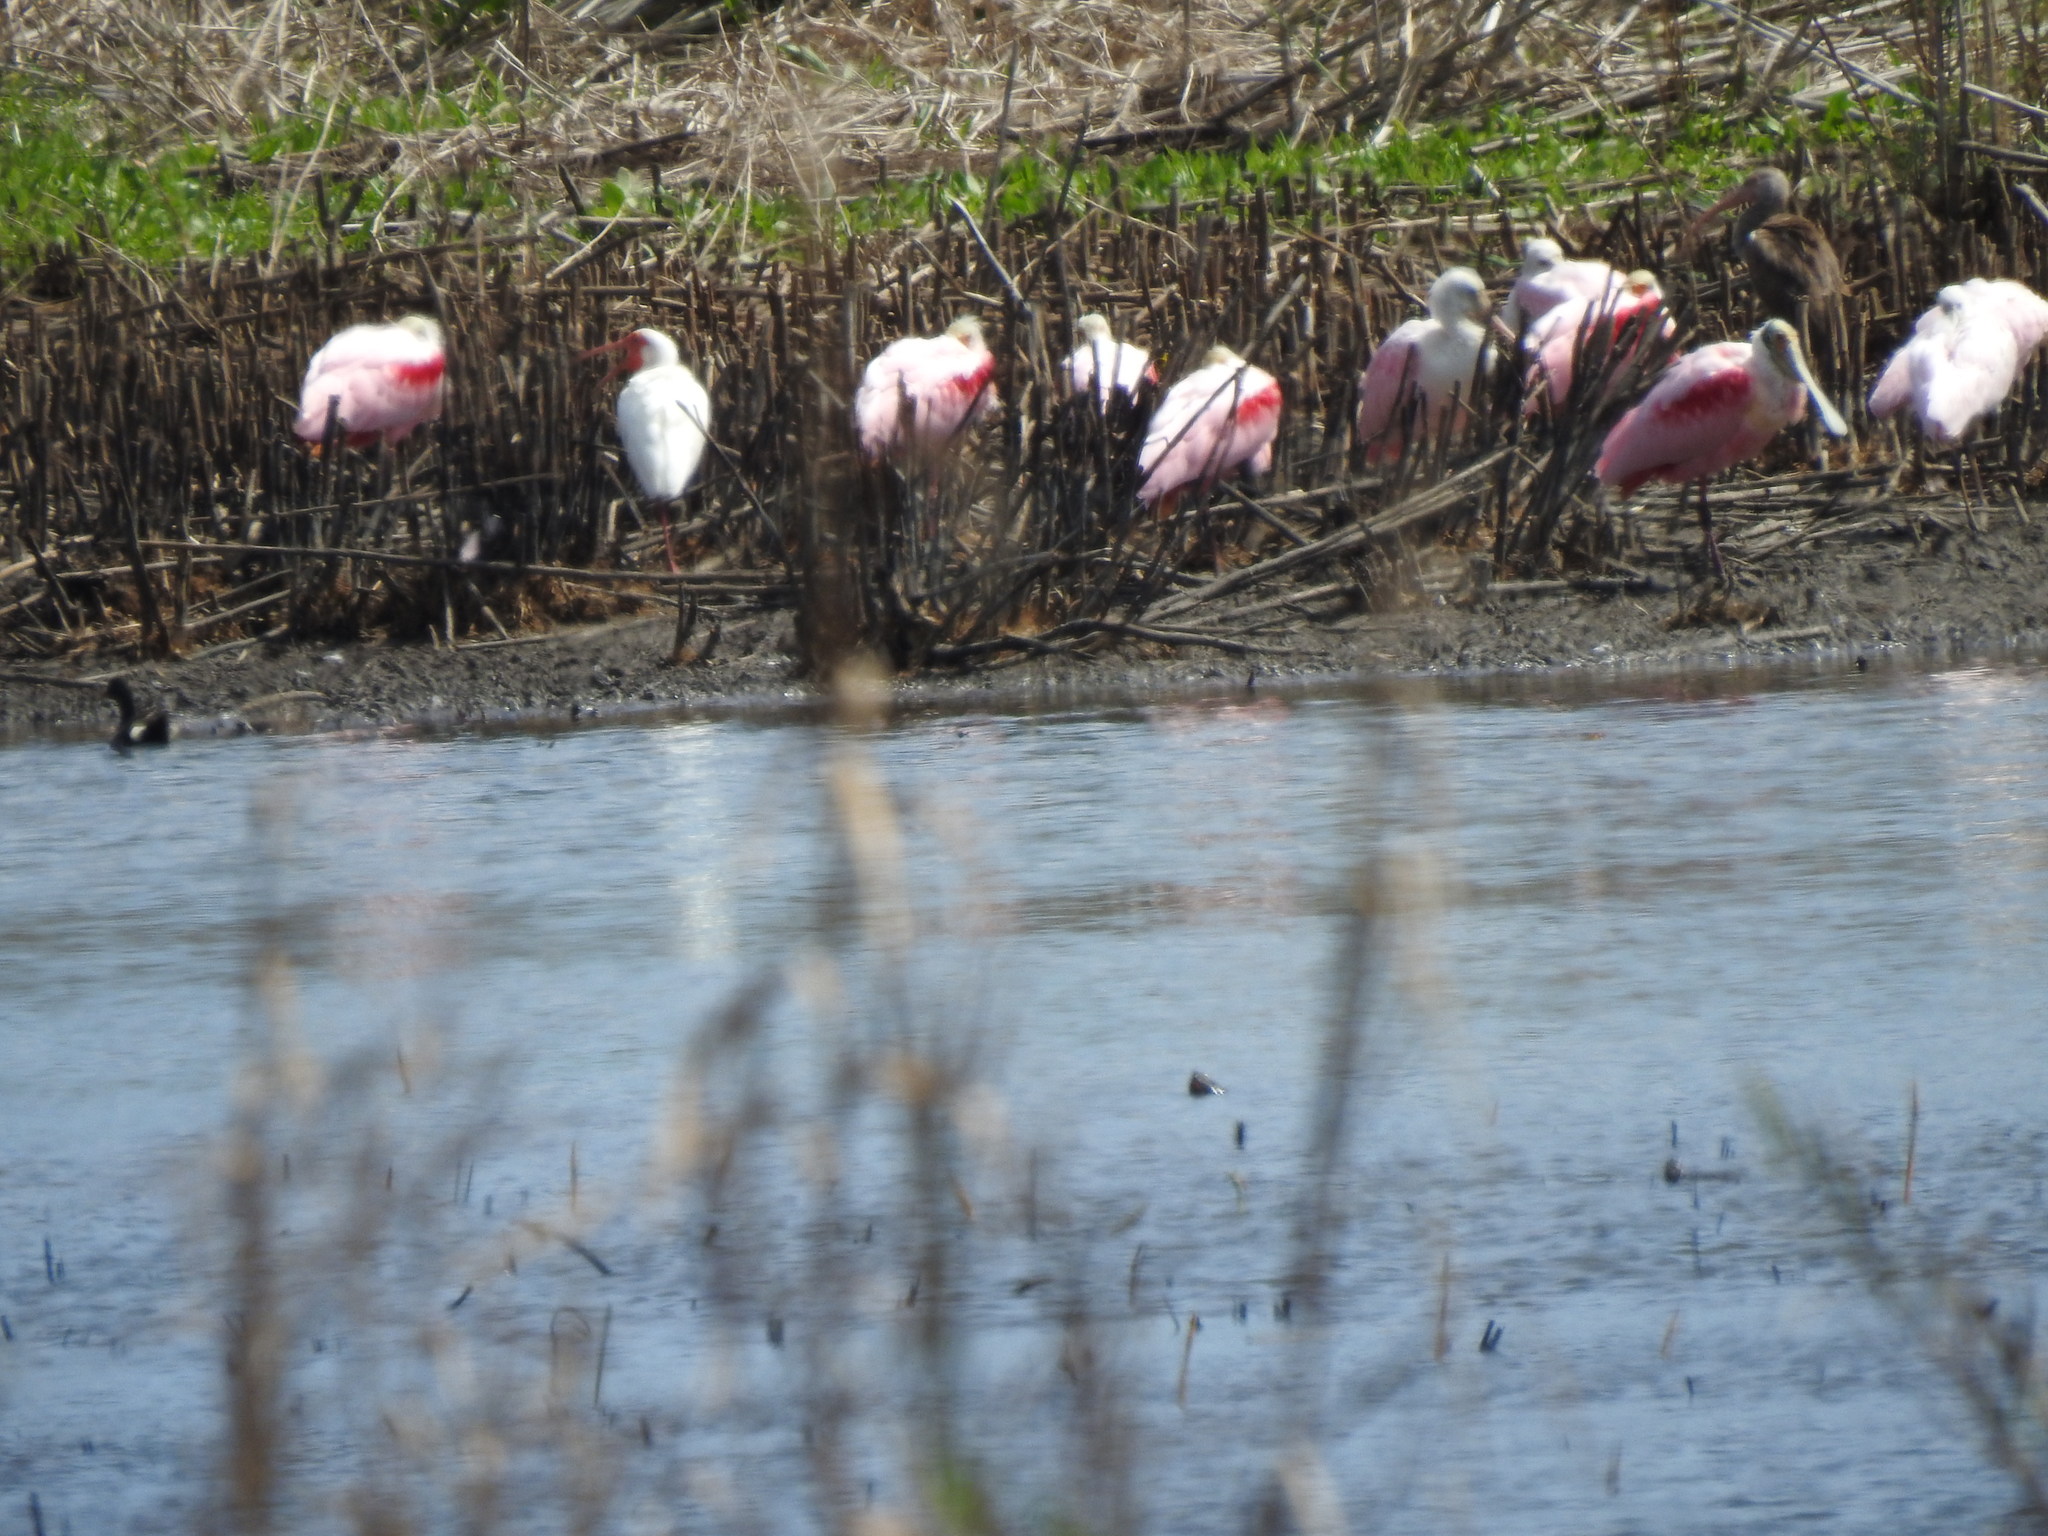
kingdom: Animalia
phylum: Chordata
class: Aves
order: Pelecaniformes
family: Threskiornithidae
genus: Platalea
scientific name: Platalea ajaja
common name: Roseate spoonbill
